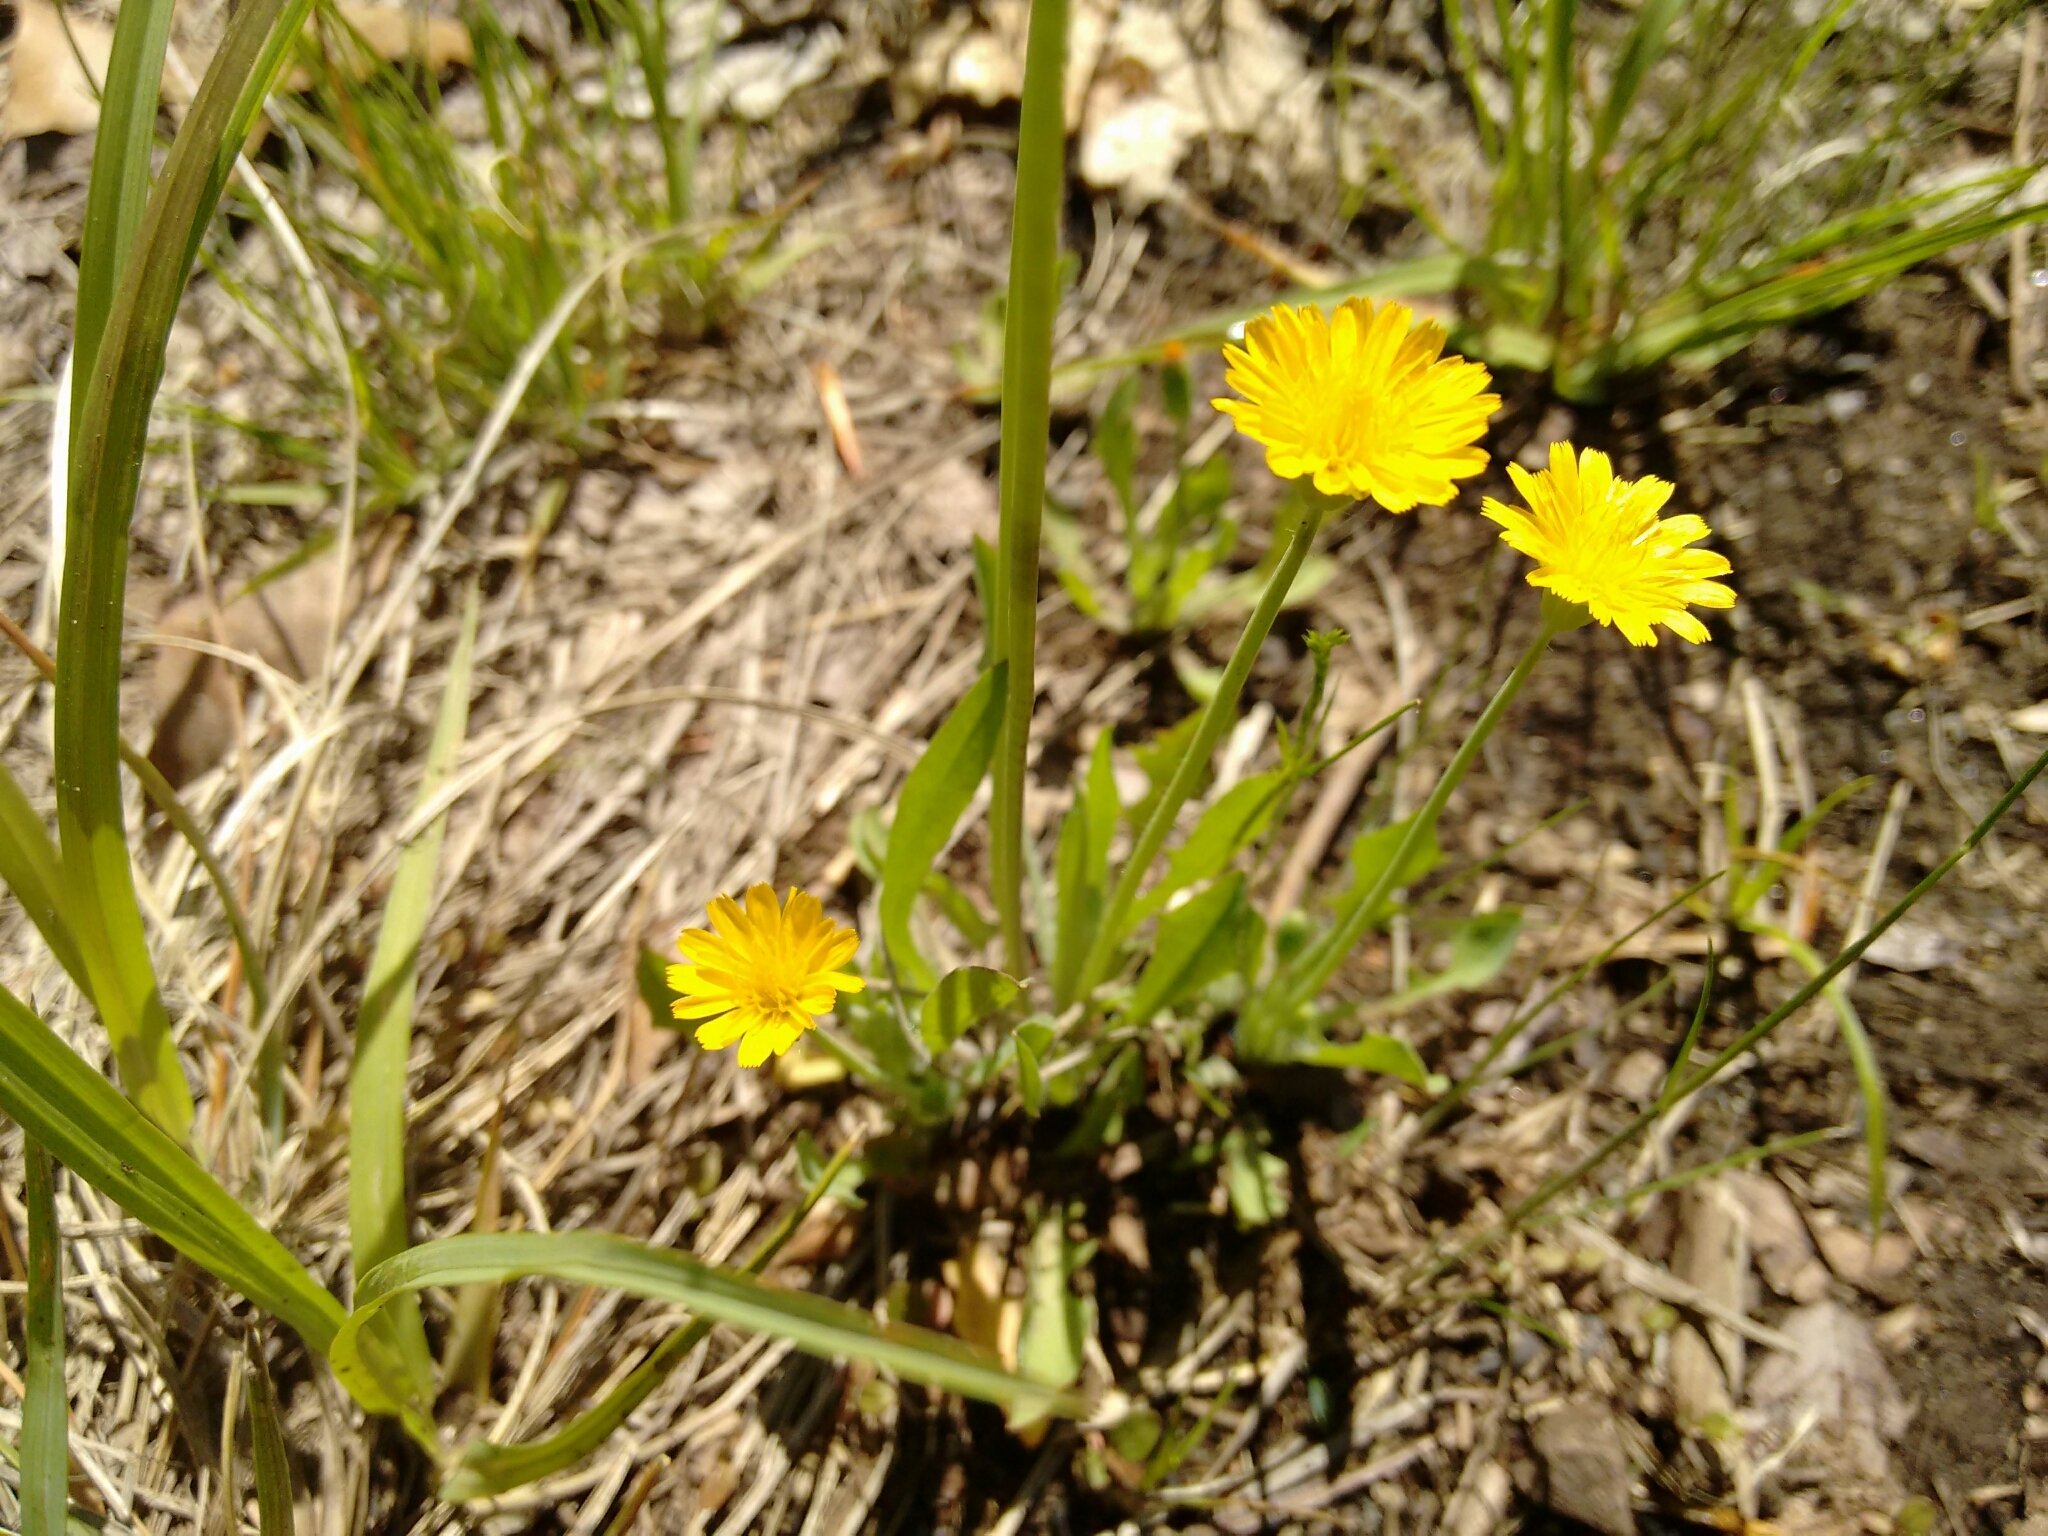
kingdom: Plantae
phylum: Tracheophyta
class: Magnoliopsida
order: Asterales
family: Asteraceae
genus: Krigia
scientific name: Krigia virginica
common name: Virginia dwarf-dandelion
